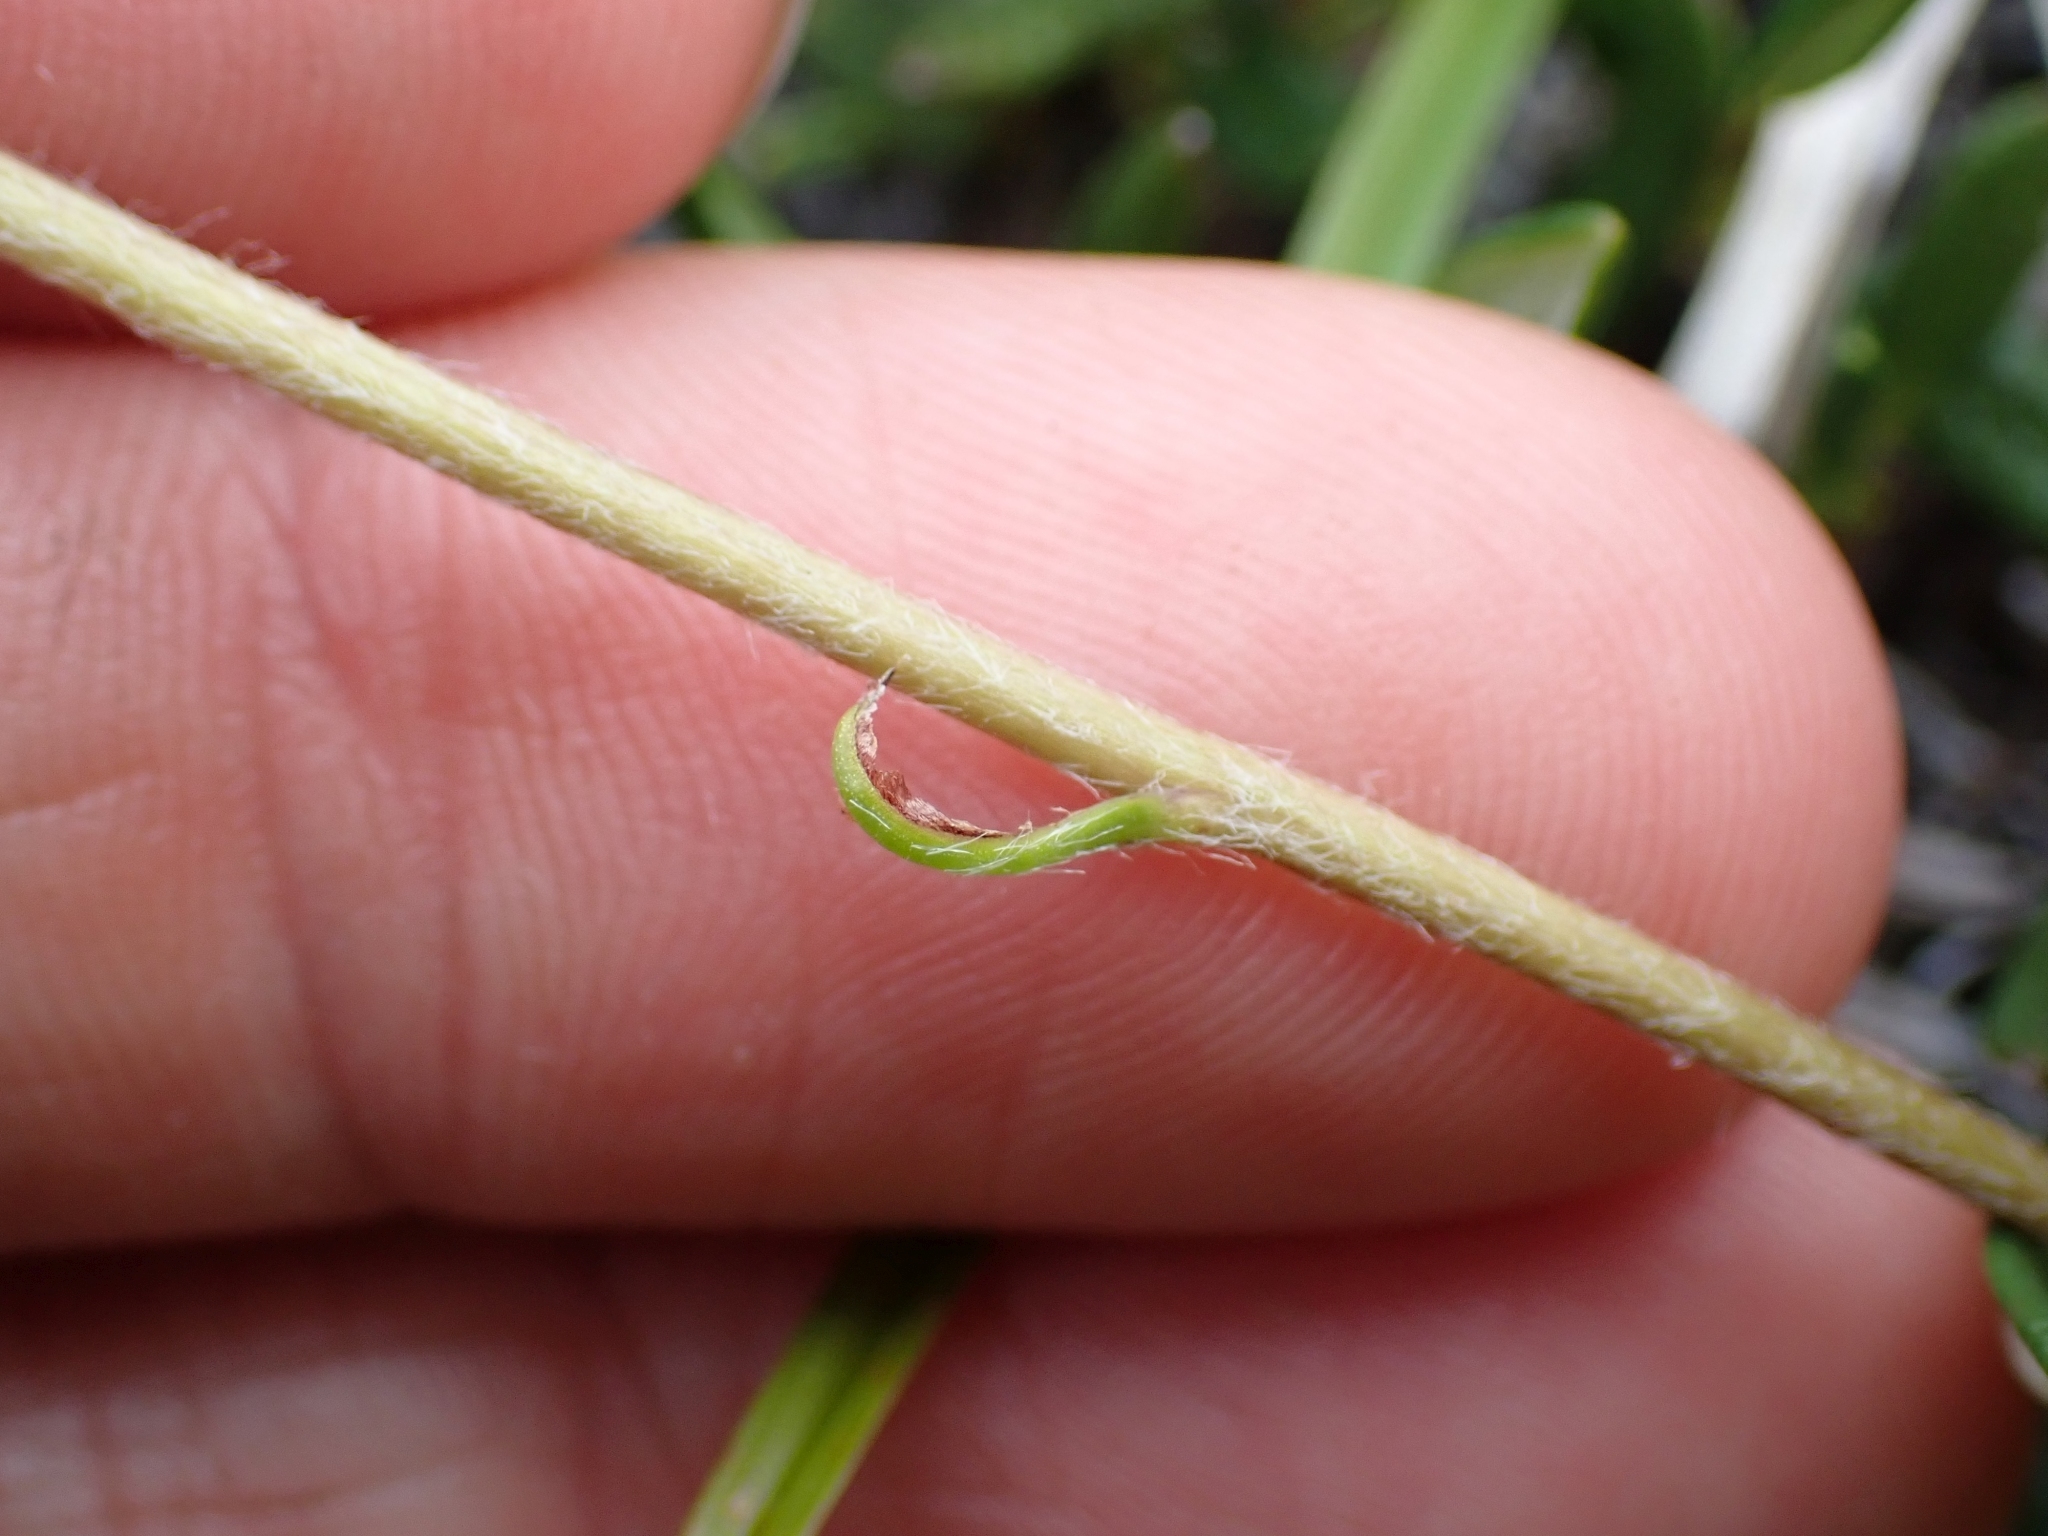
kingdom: Plantae
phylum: Tracheophyta
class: Magnoliopsida
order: Asterales
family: Asteraceae
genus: Arctanthemum
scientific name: Arctanthemum integrifolium
